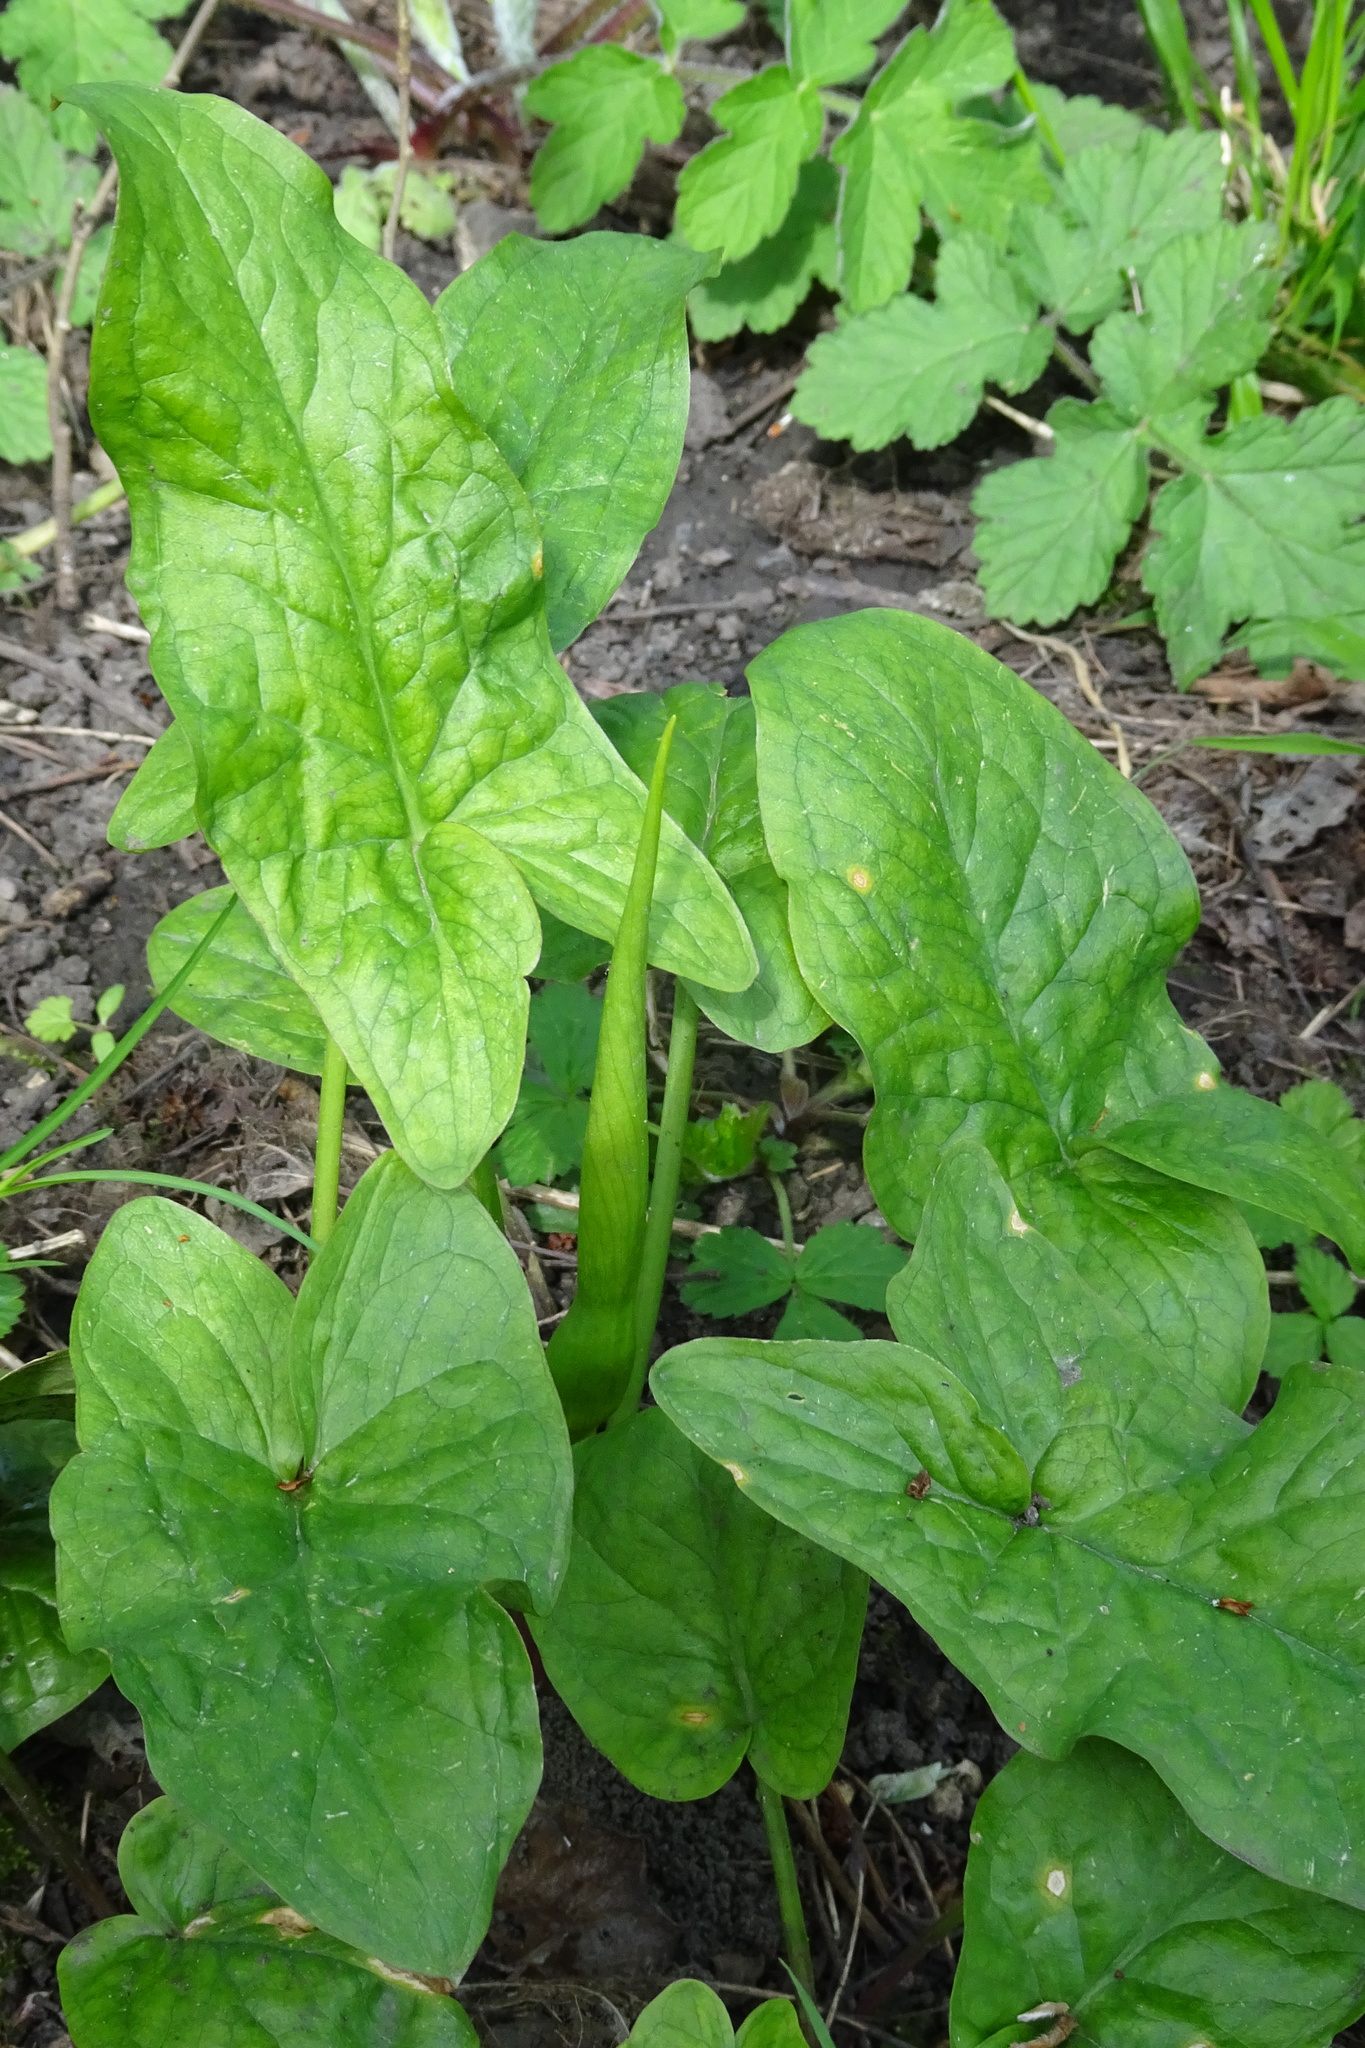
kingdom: Plantae
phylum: Tracheophyta
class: Liliopsida
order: Alismatales
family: Araceae
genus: Arum
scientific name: Arum maculatum
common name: Lords-and-ladies
